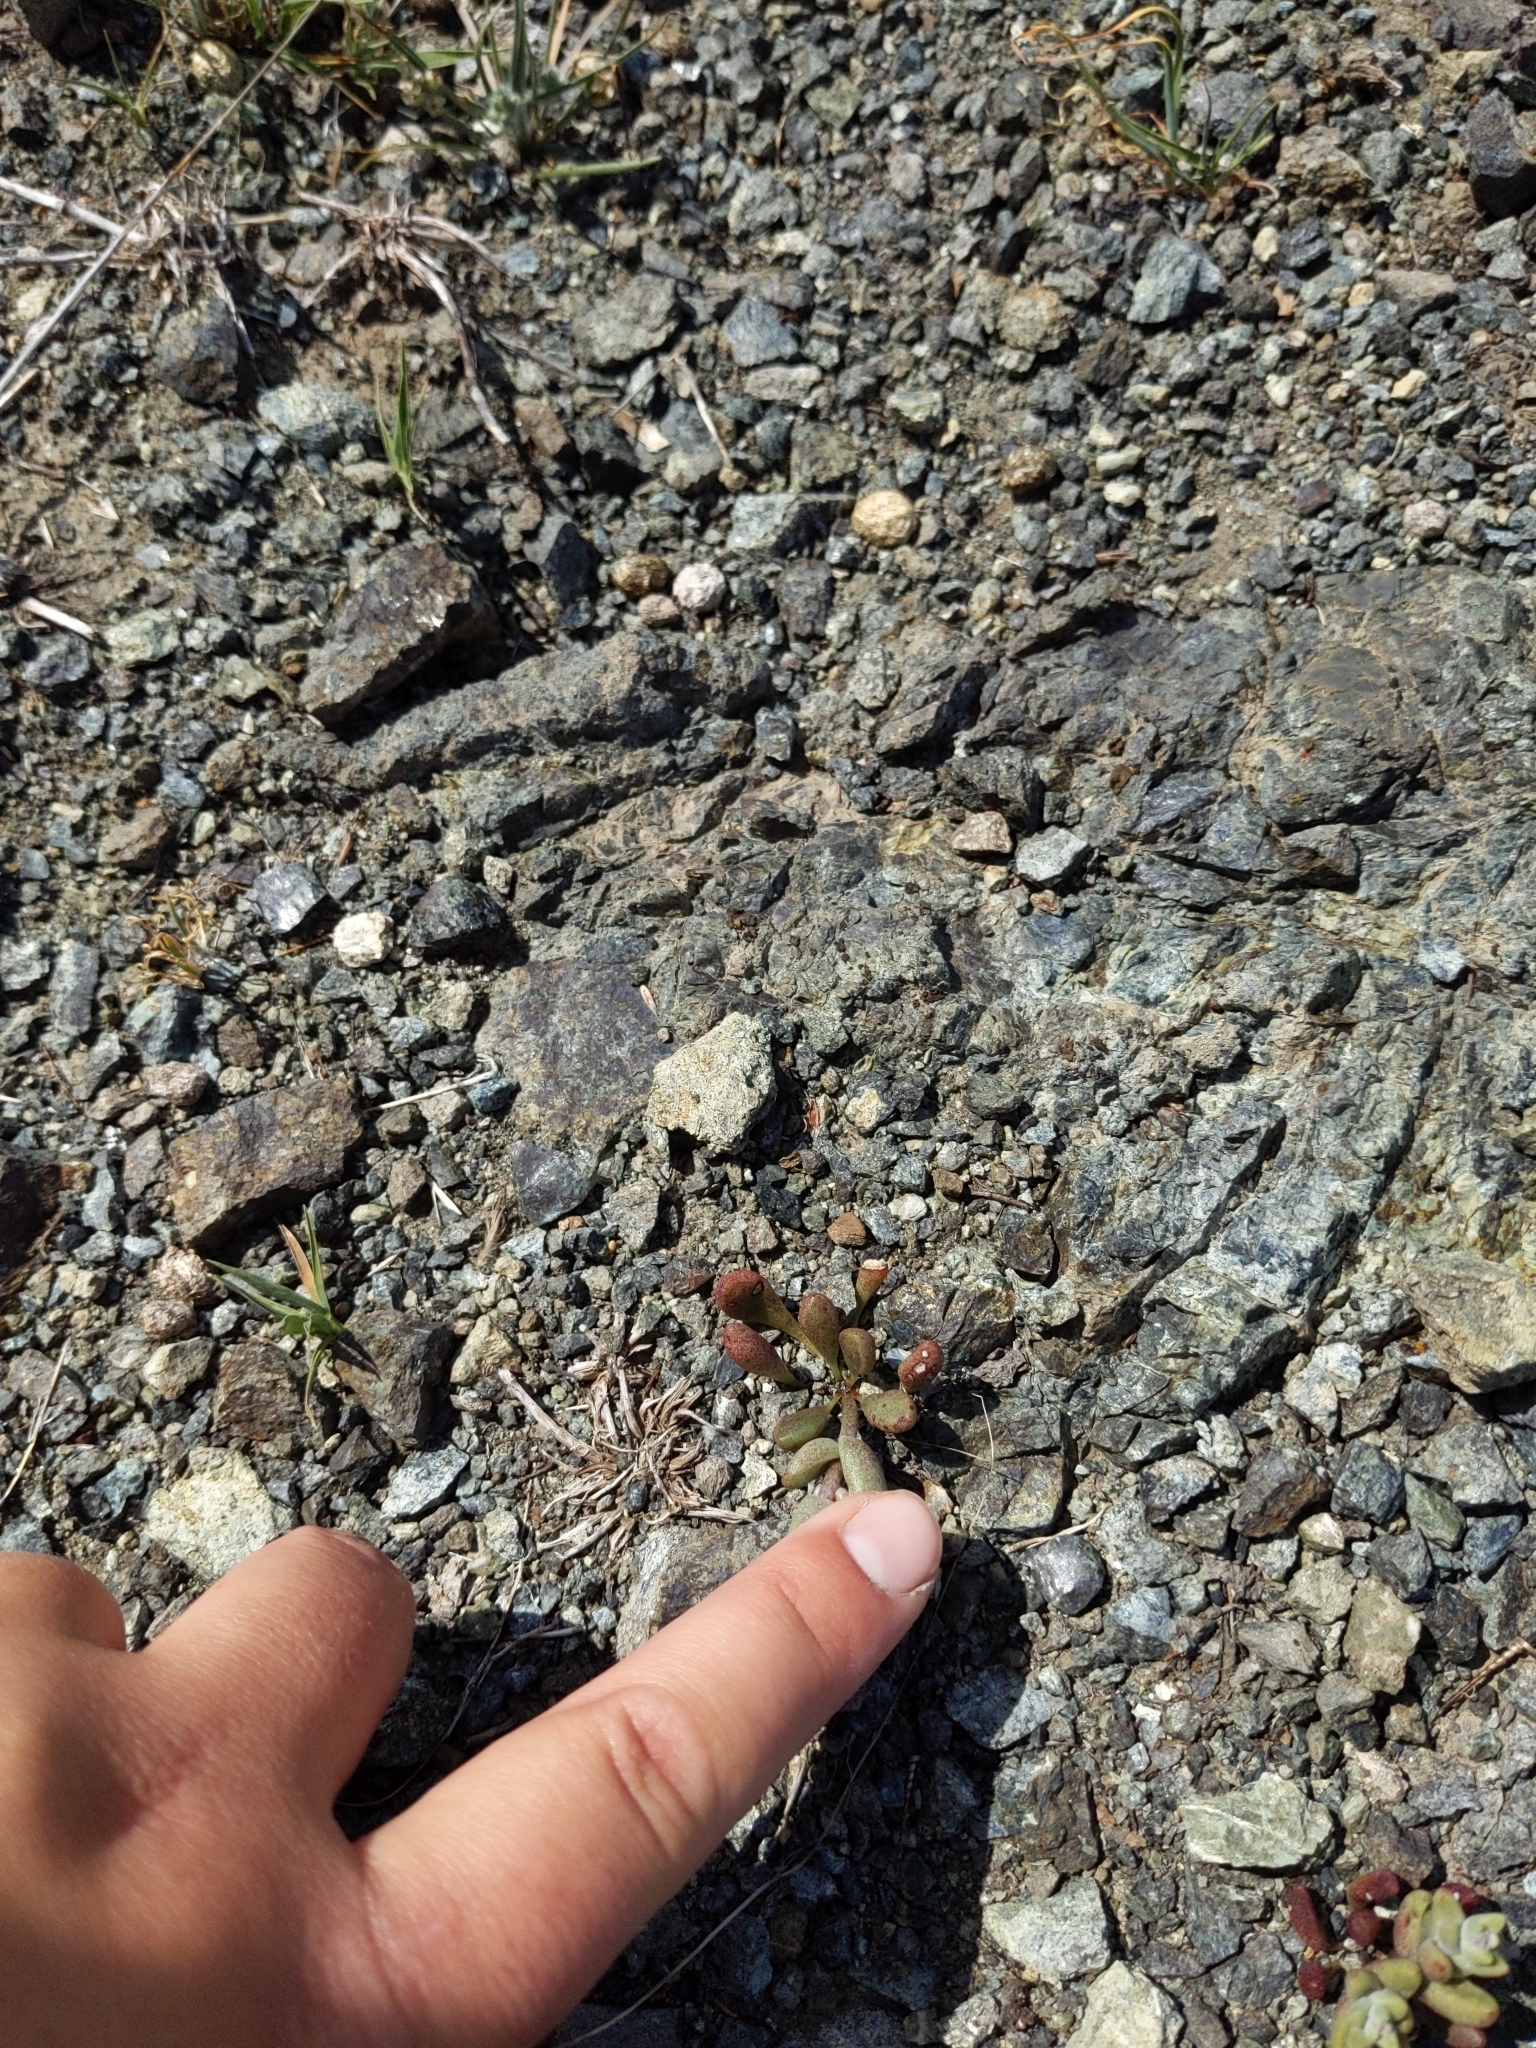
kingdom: Plantae
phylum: Tracheophyta
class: Magnoliopsida
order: Saxifragales
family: Crassulaceae
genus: Dudleya
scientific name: Dudleya blochmaniae
